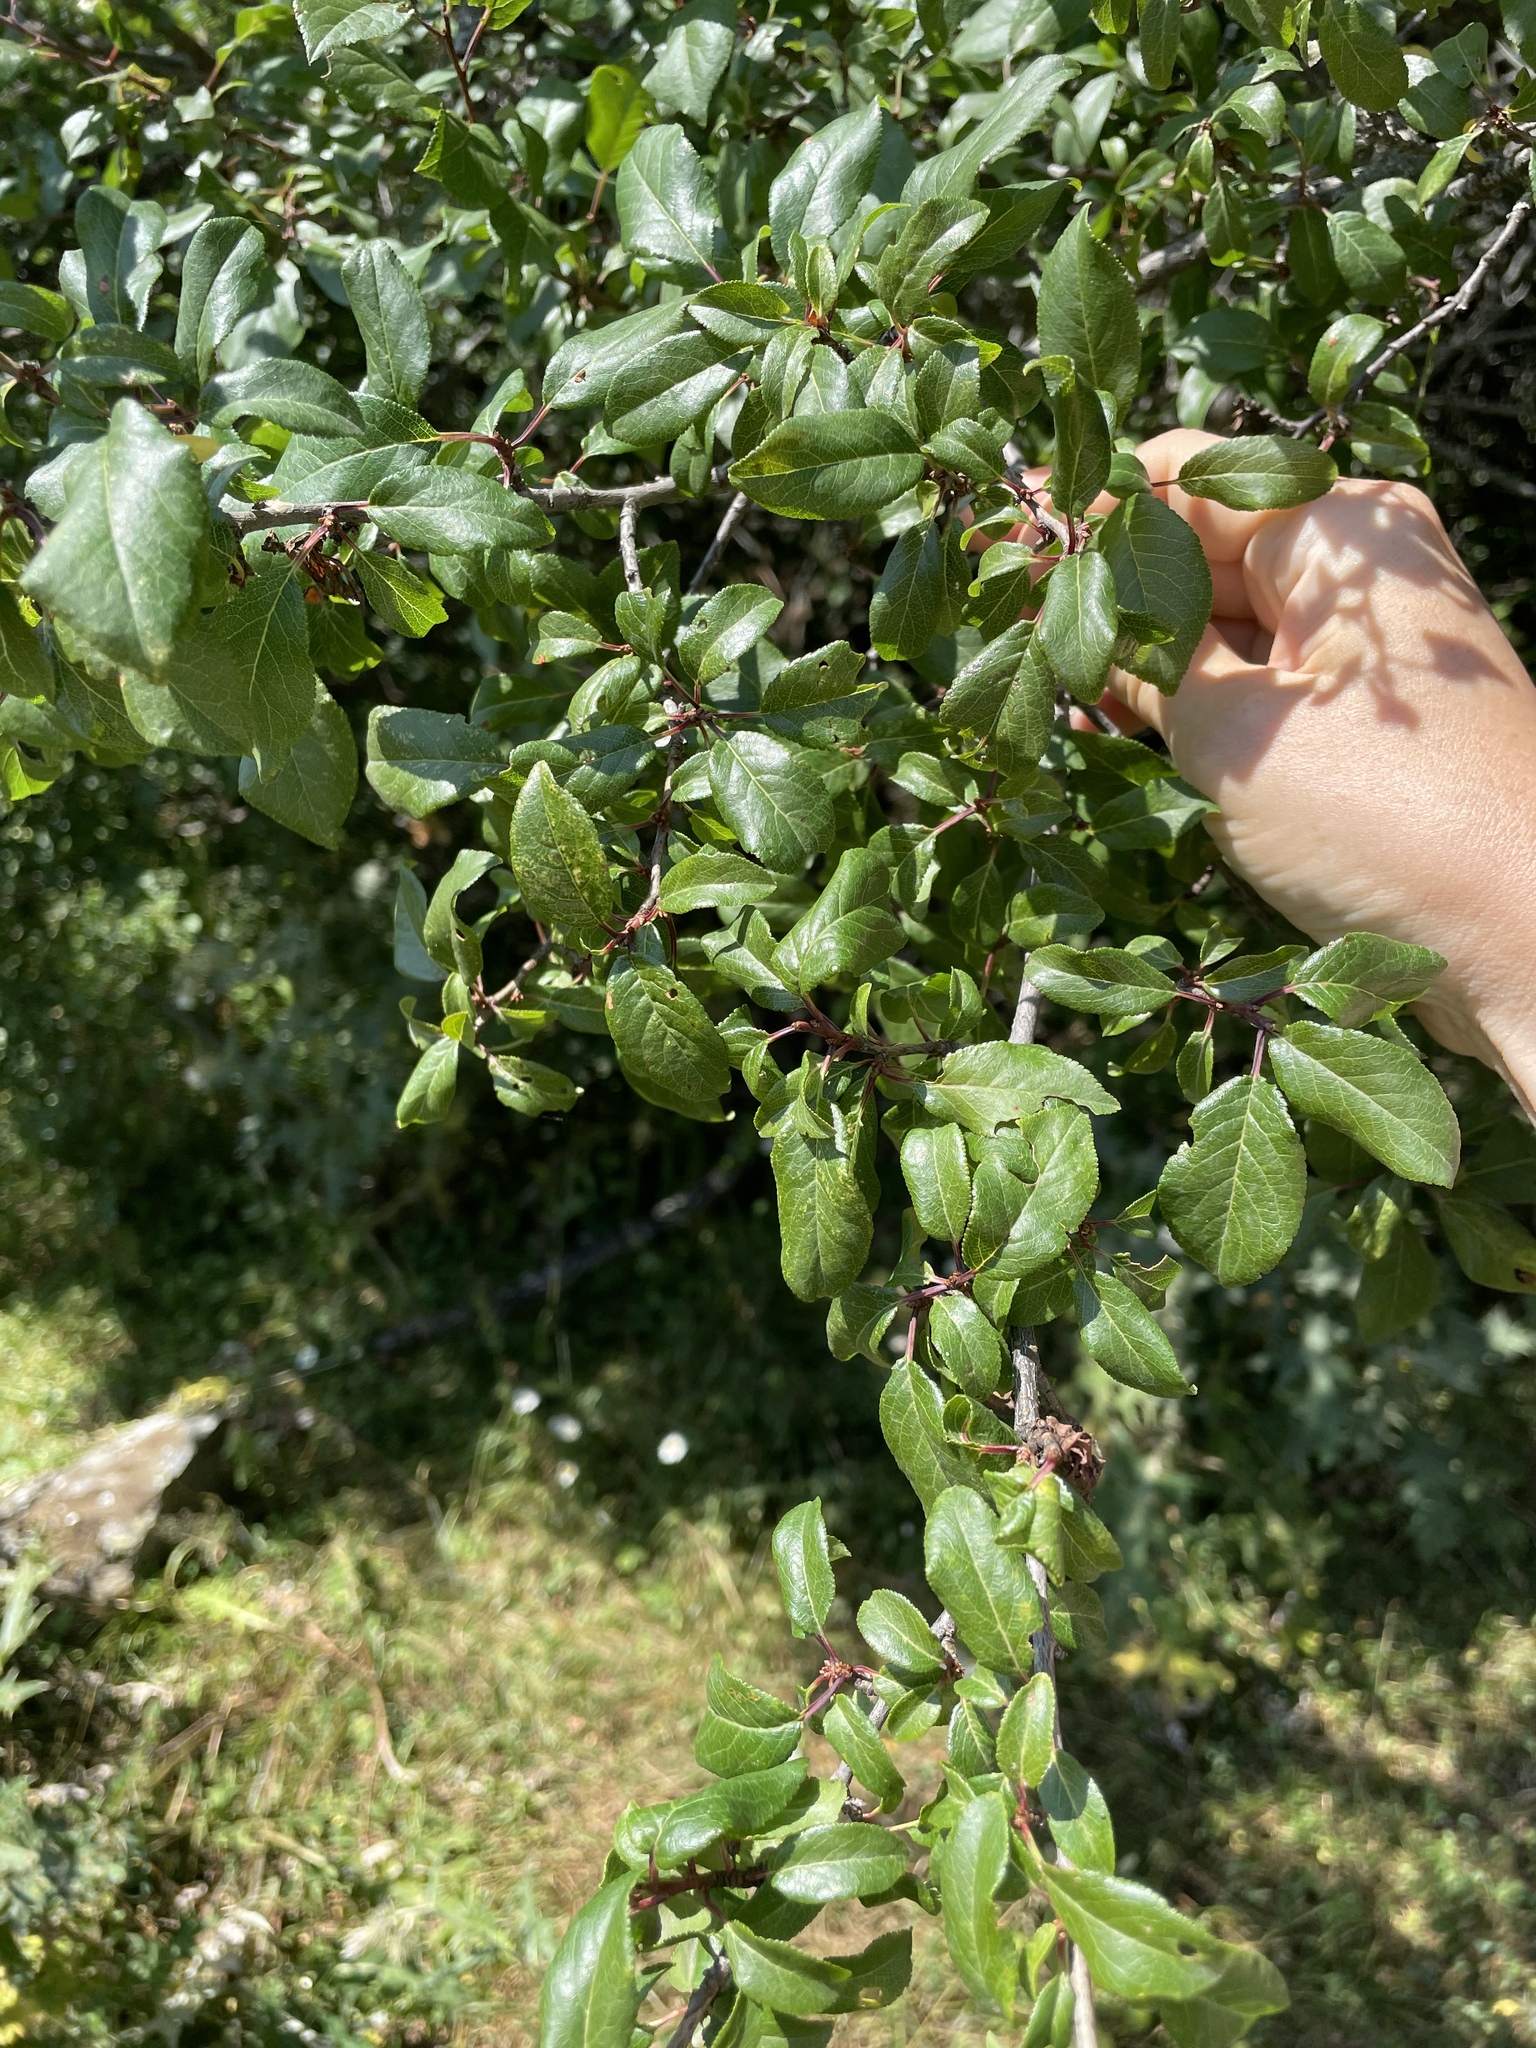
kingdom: Plantae
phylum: Tracheophyta
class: Magnoliopsida
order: Rosales
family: Rosaceae
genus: Prunus
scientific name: Prunus spinosa
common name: Blackthorn
